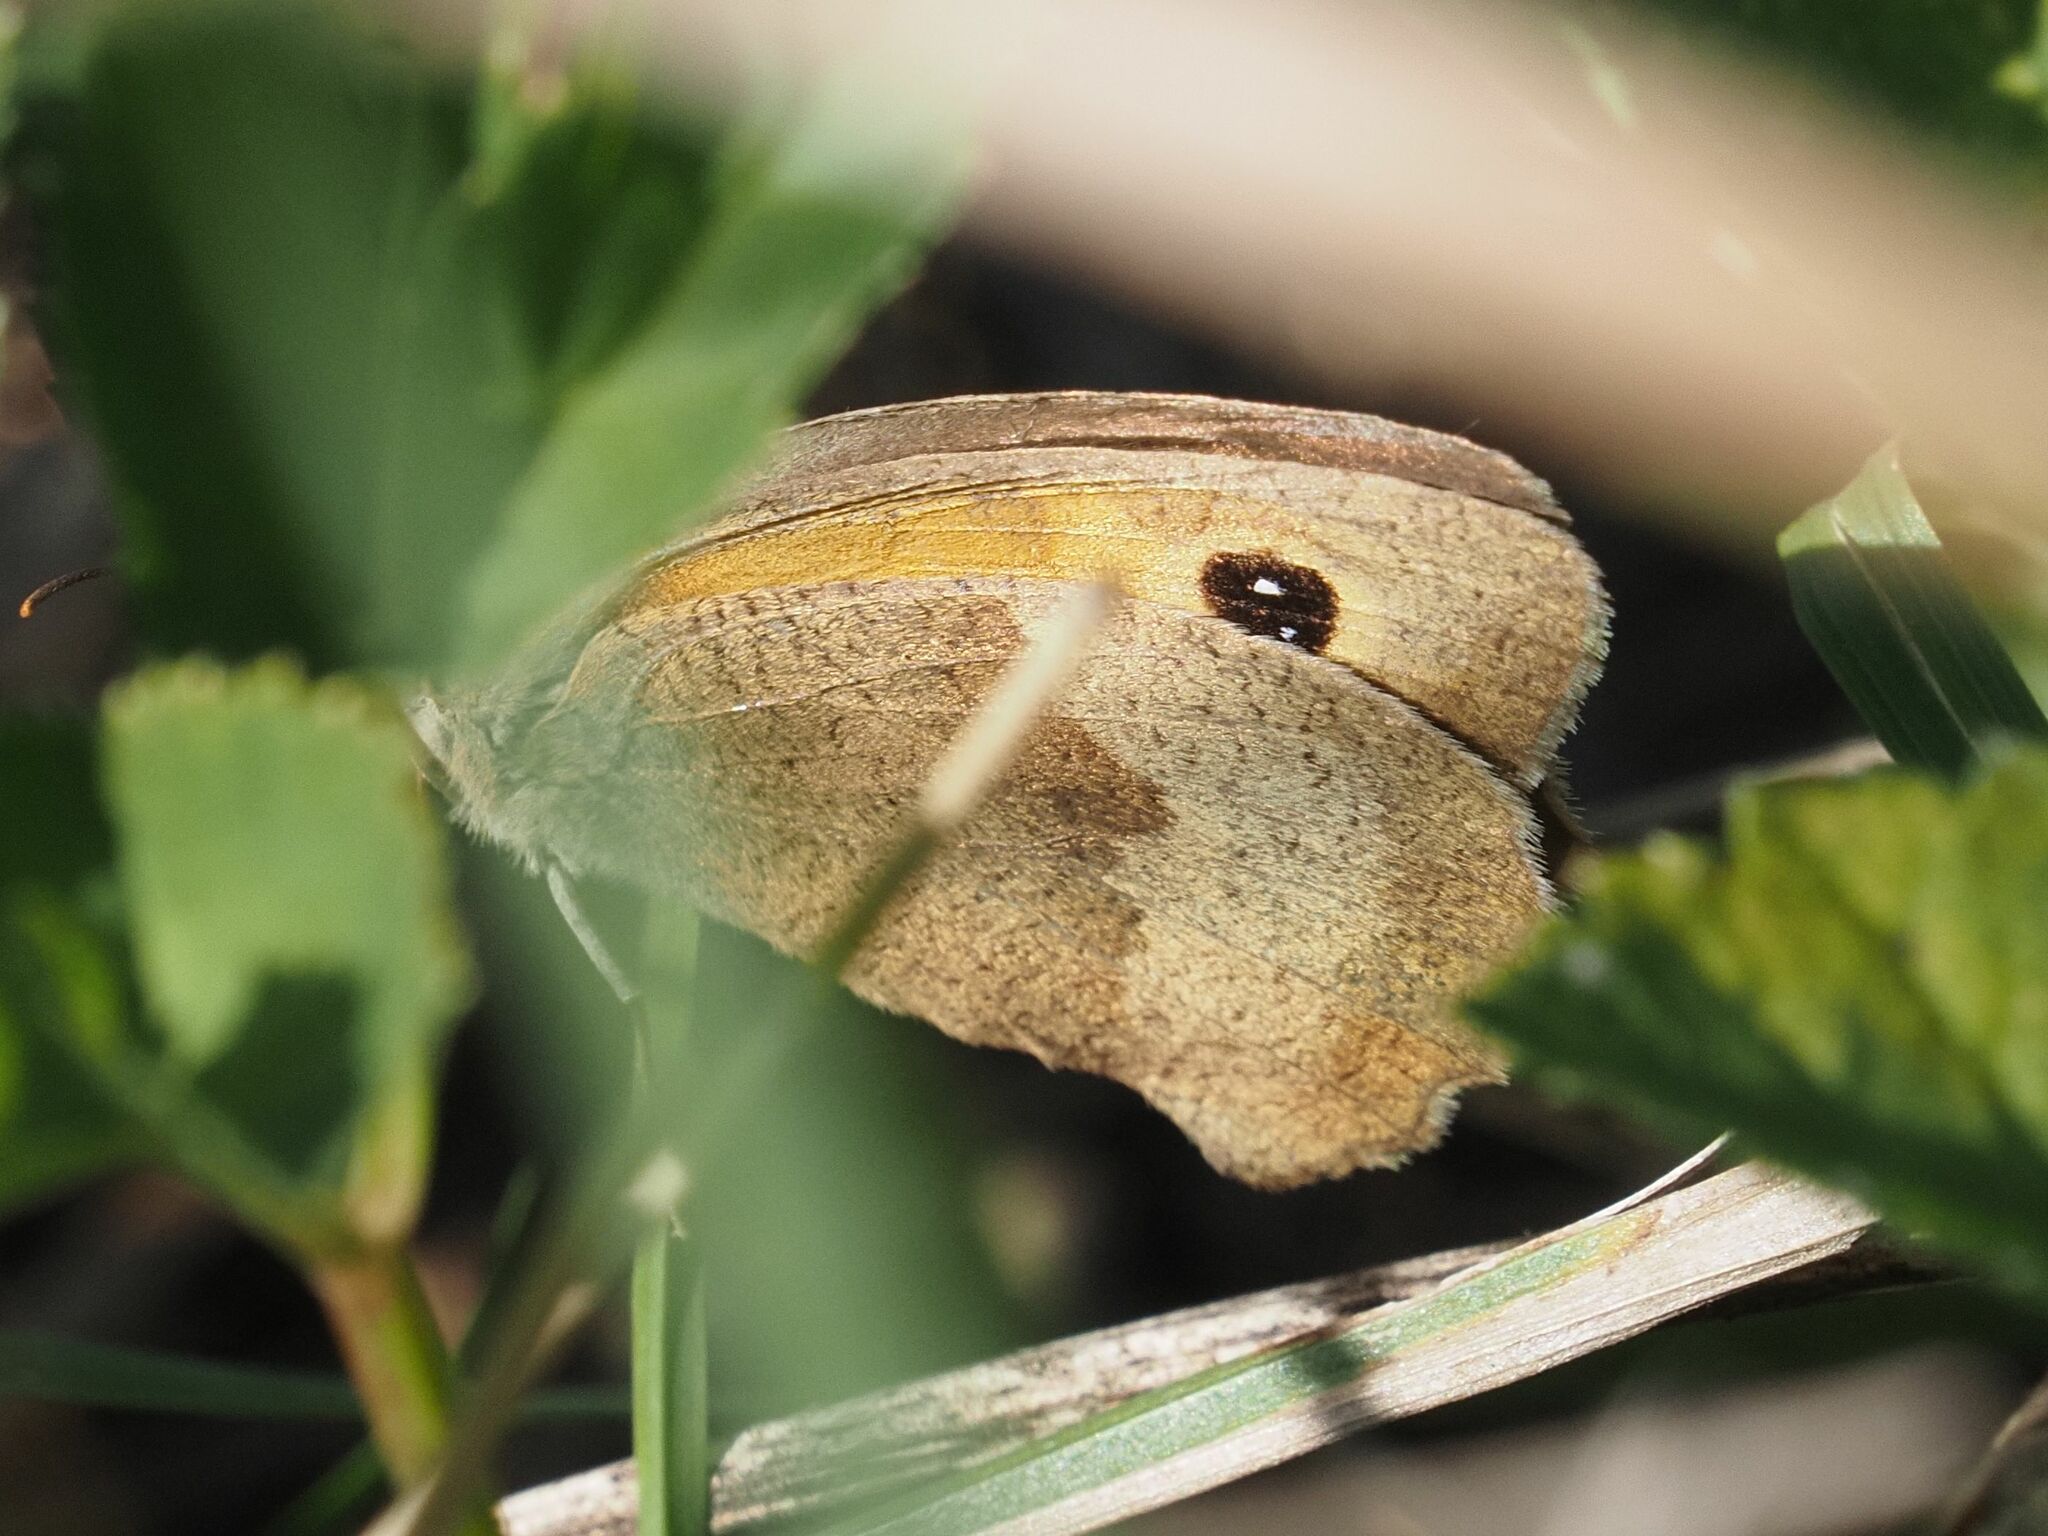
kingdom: Animalia
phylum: Arthropoda
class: Insecta
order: Lepidoptera
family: Nymphalidae
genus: Maniola
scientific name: Maniola jurtina
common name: Meadow brown
